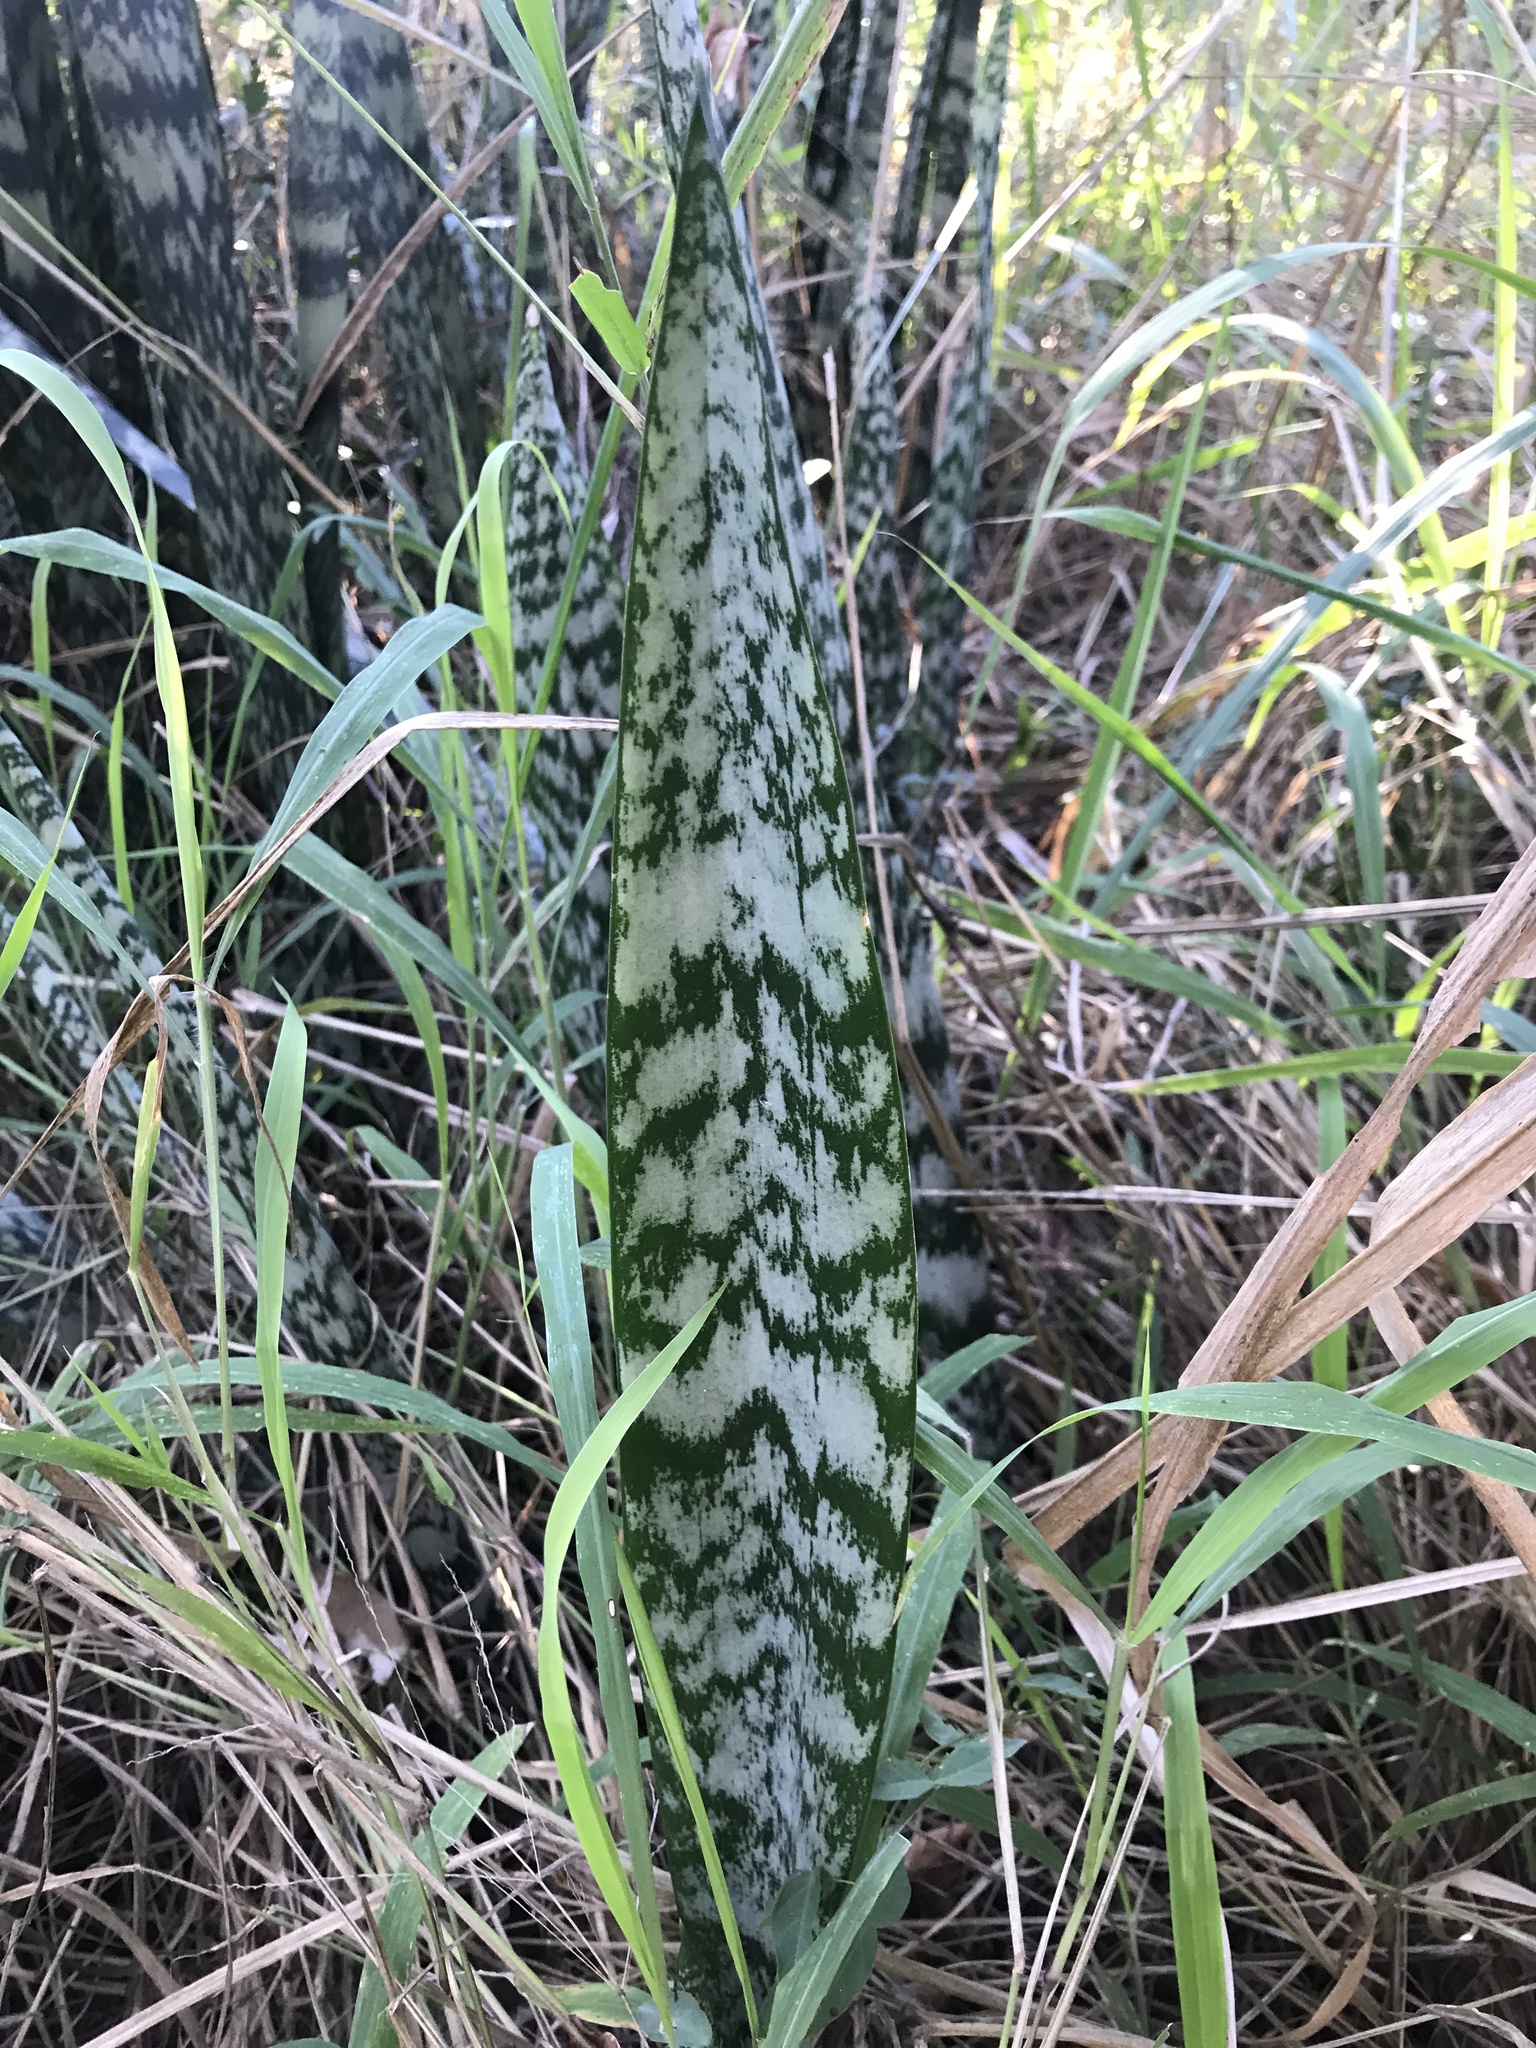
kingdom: Plantae
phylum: Tracheophyta
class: Liliopsida
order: Asparagales
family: Asparagaceae
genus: Dracaena
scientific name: Dracaena trifasciata
